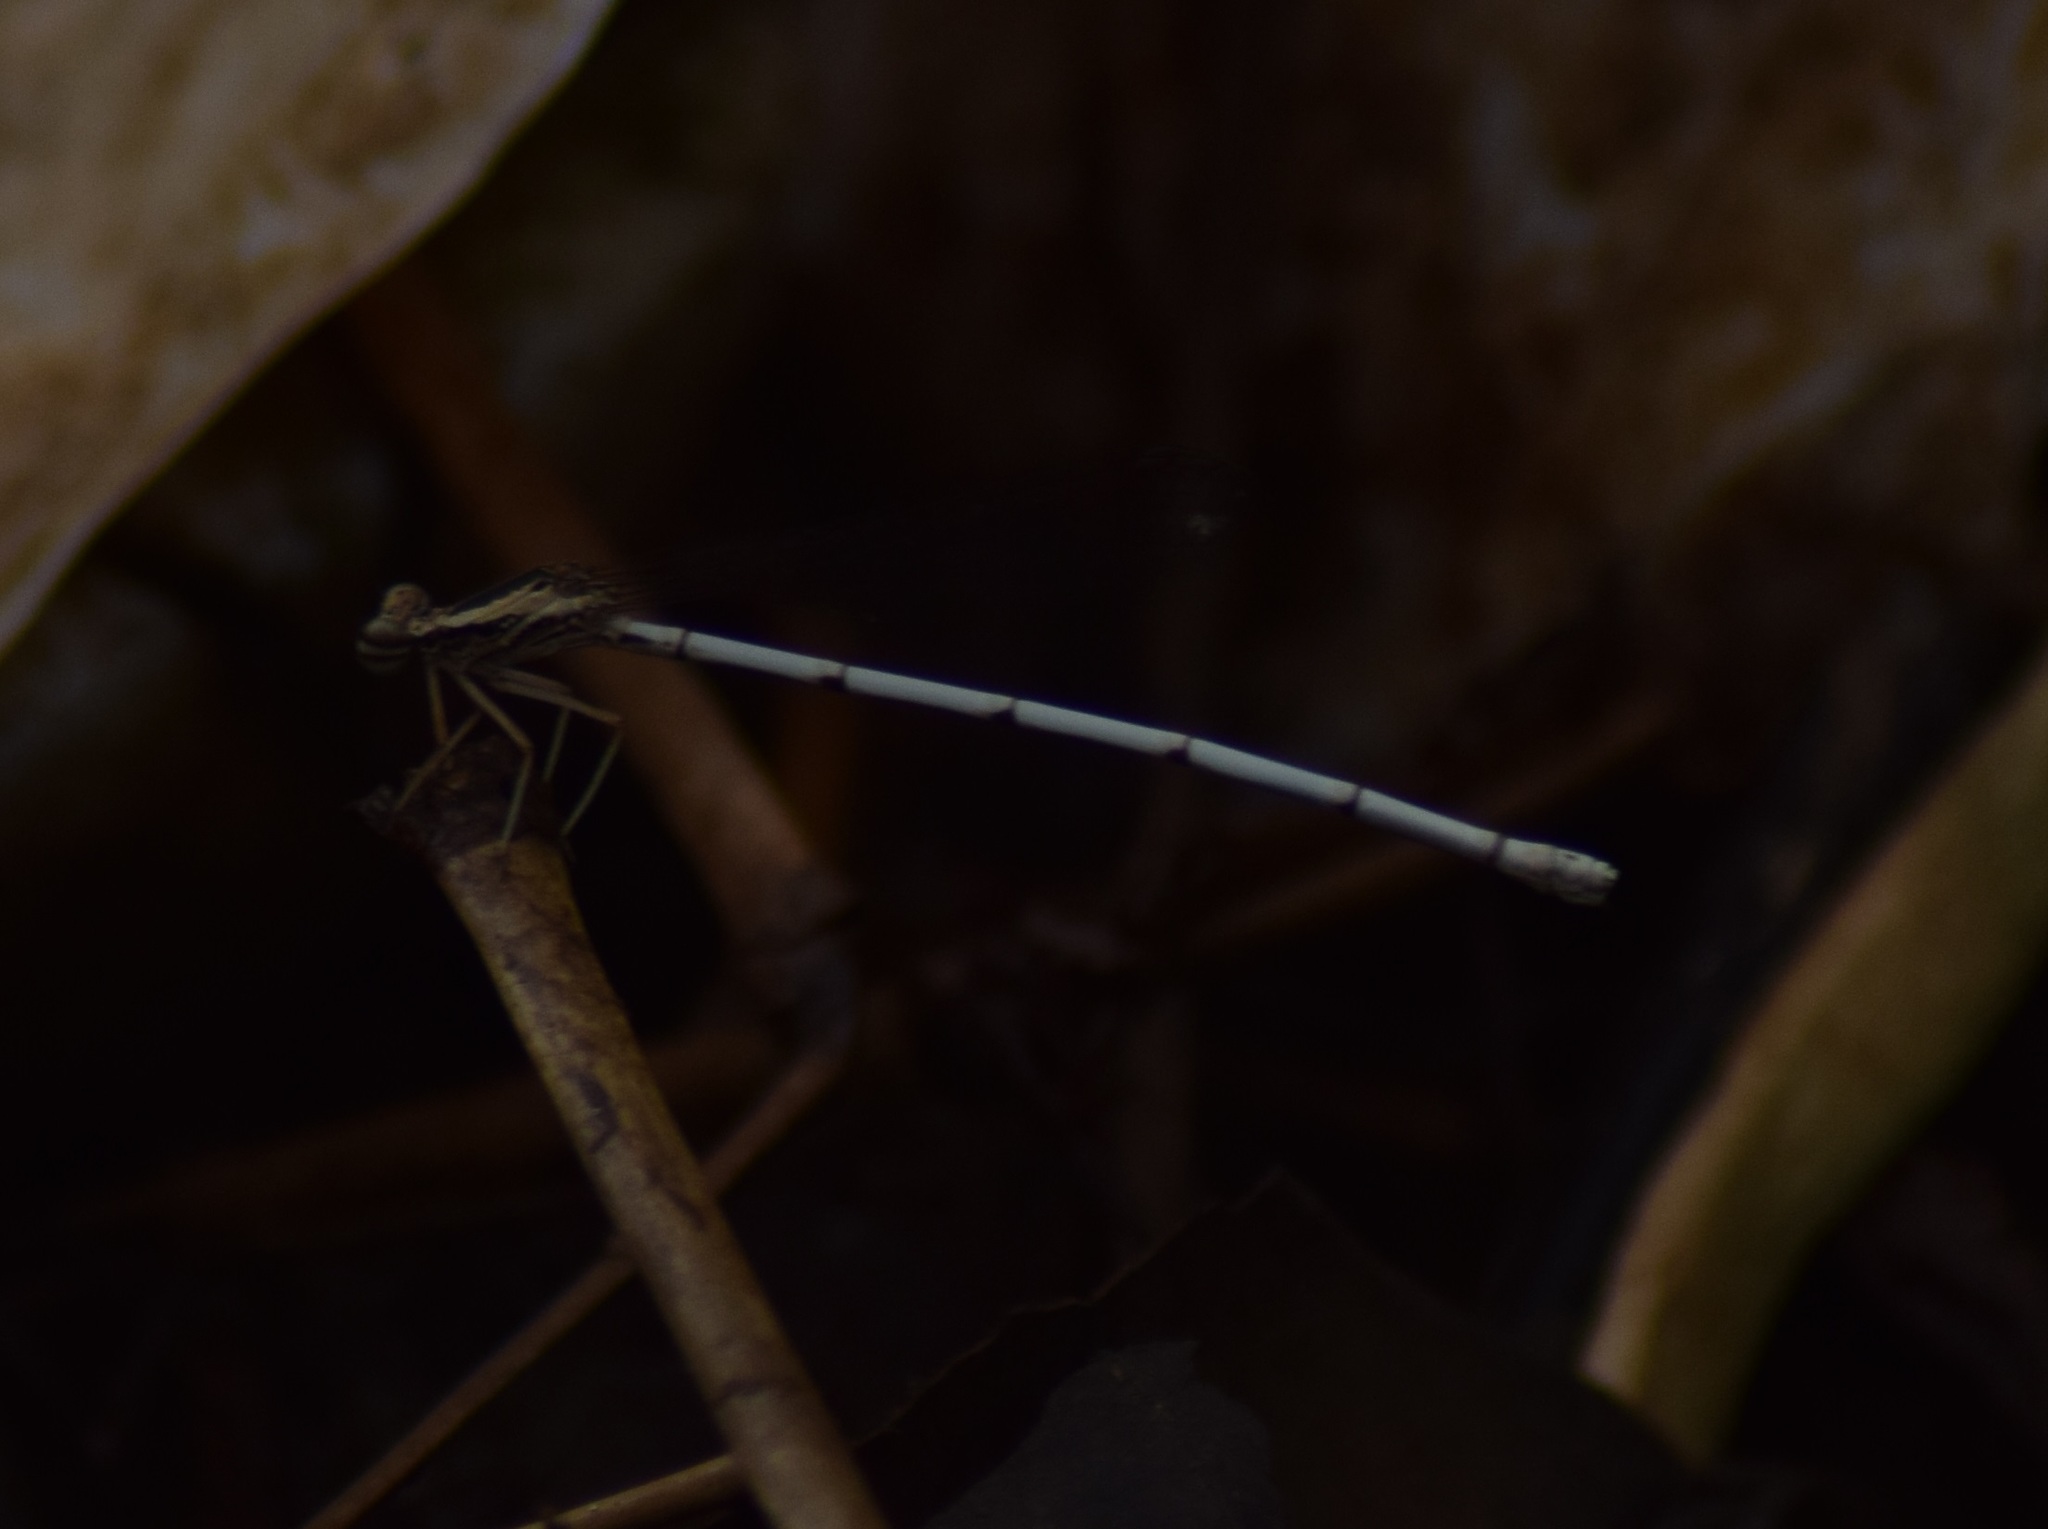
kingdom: Animalia
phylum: Arthropoda
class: Insecta
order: Odonata
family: Platycnemididae
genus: Copera
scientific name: Copera marginipes
